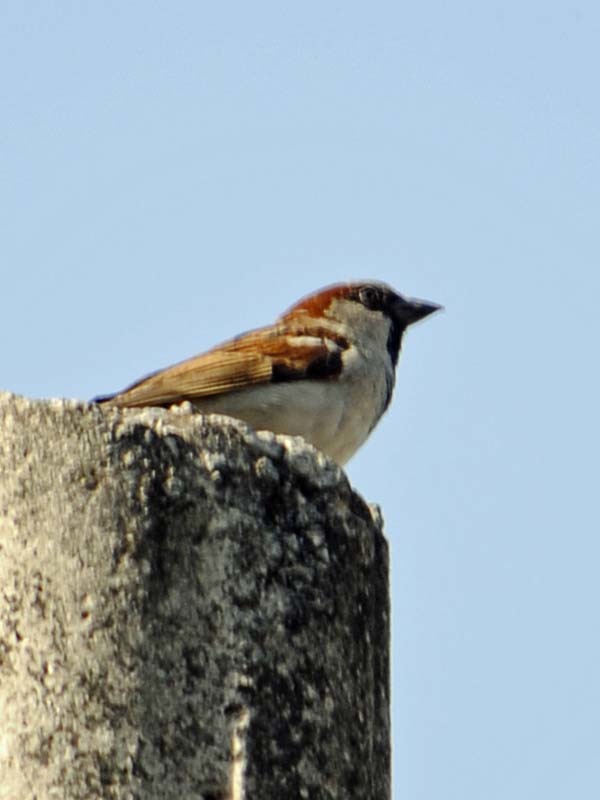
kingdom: Animalia
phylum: Chordata
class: Aves
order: Passeriformes
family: Passeridae
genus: Passer
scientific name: Passer domesticus
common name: House sparrow
